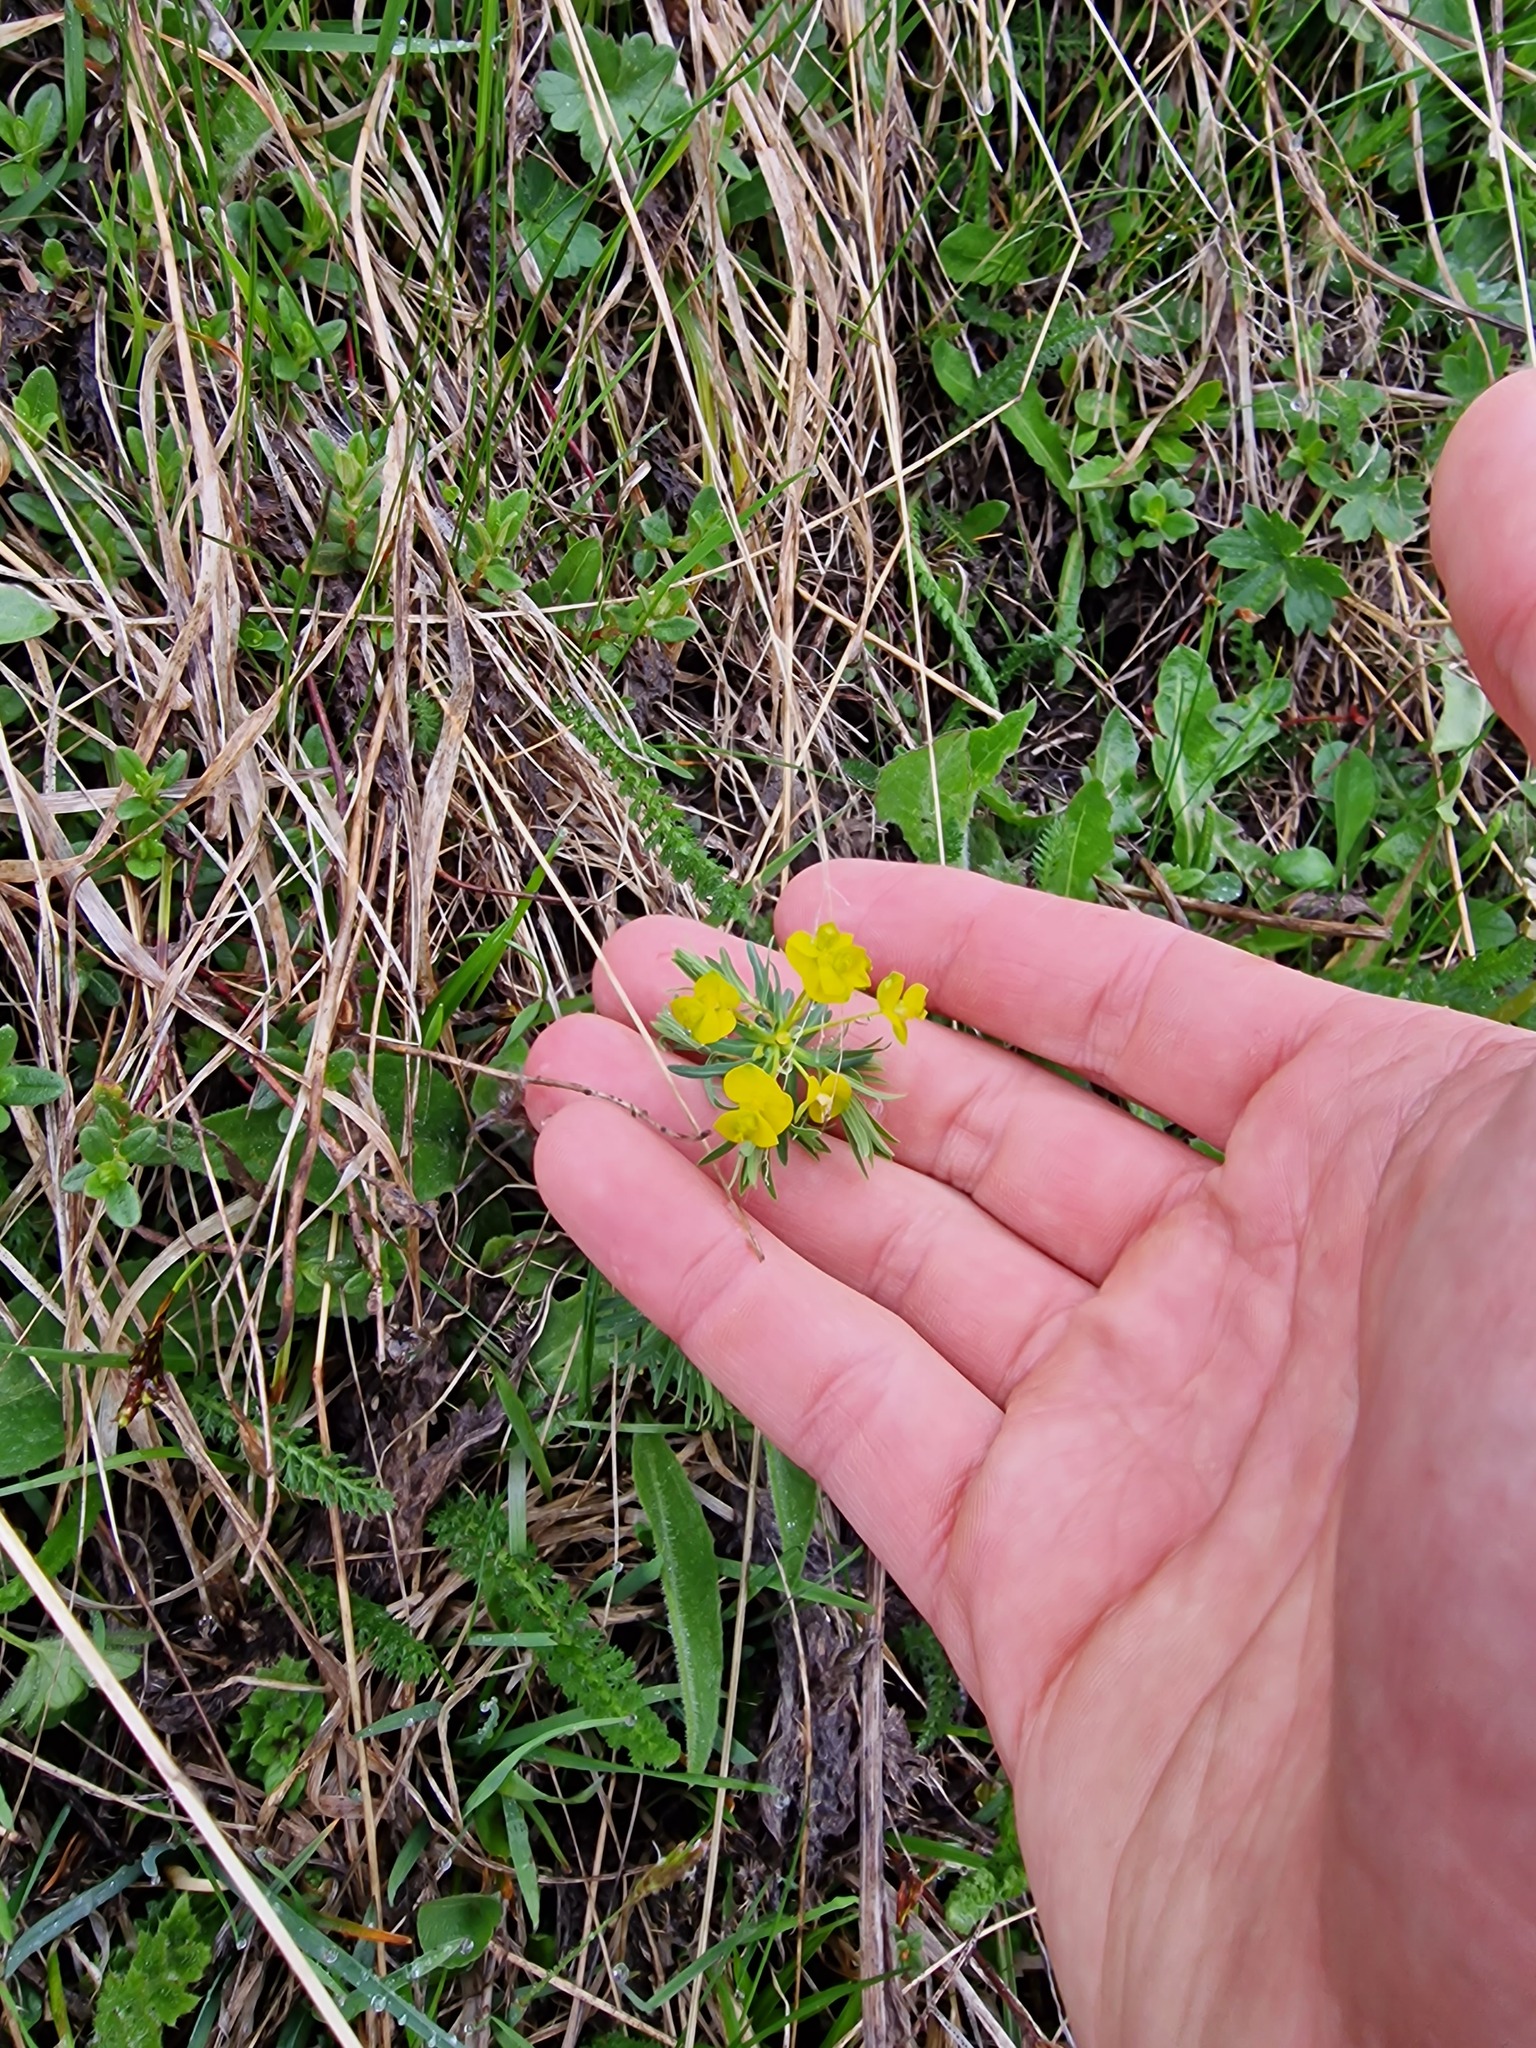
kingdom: Plantae
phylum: Tracheophyta
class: Magnoliopsida
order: Malpighiales
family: Euphorbiaceae
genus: Euphorbia
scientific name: Euphorbia cyparissias
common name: Cypress spurge
